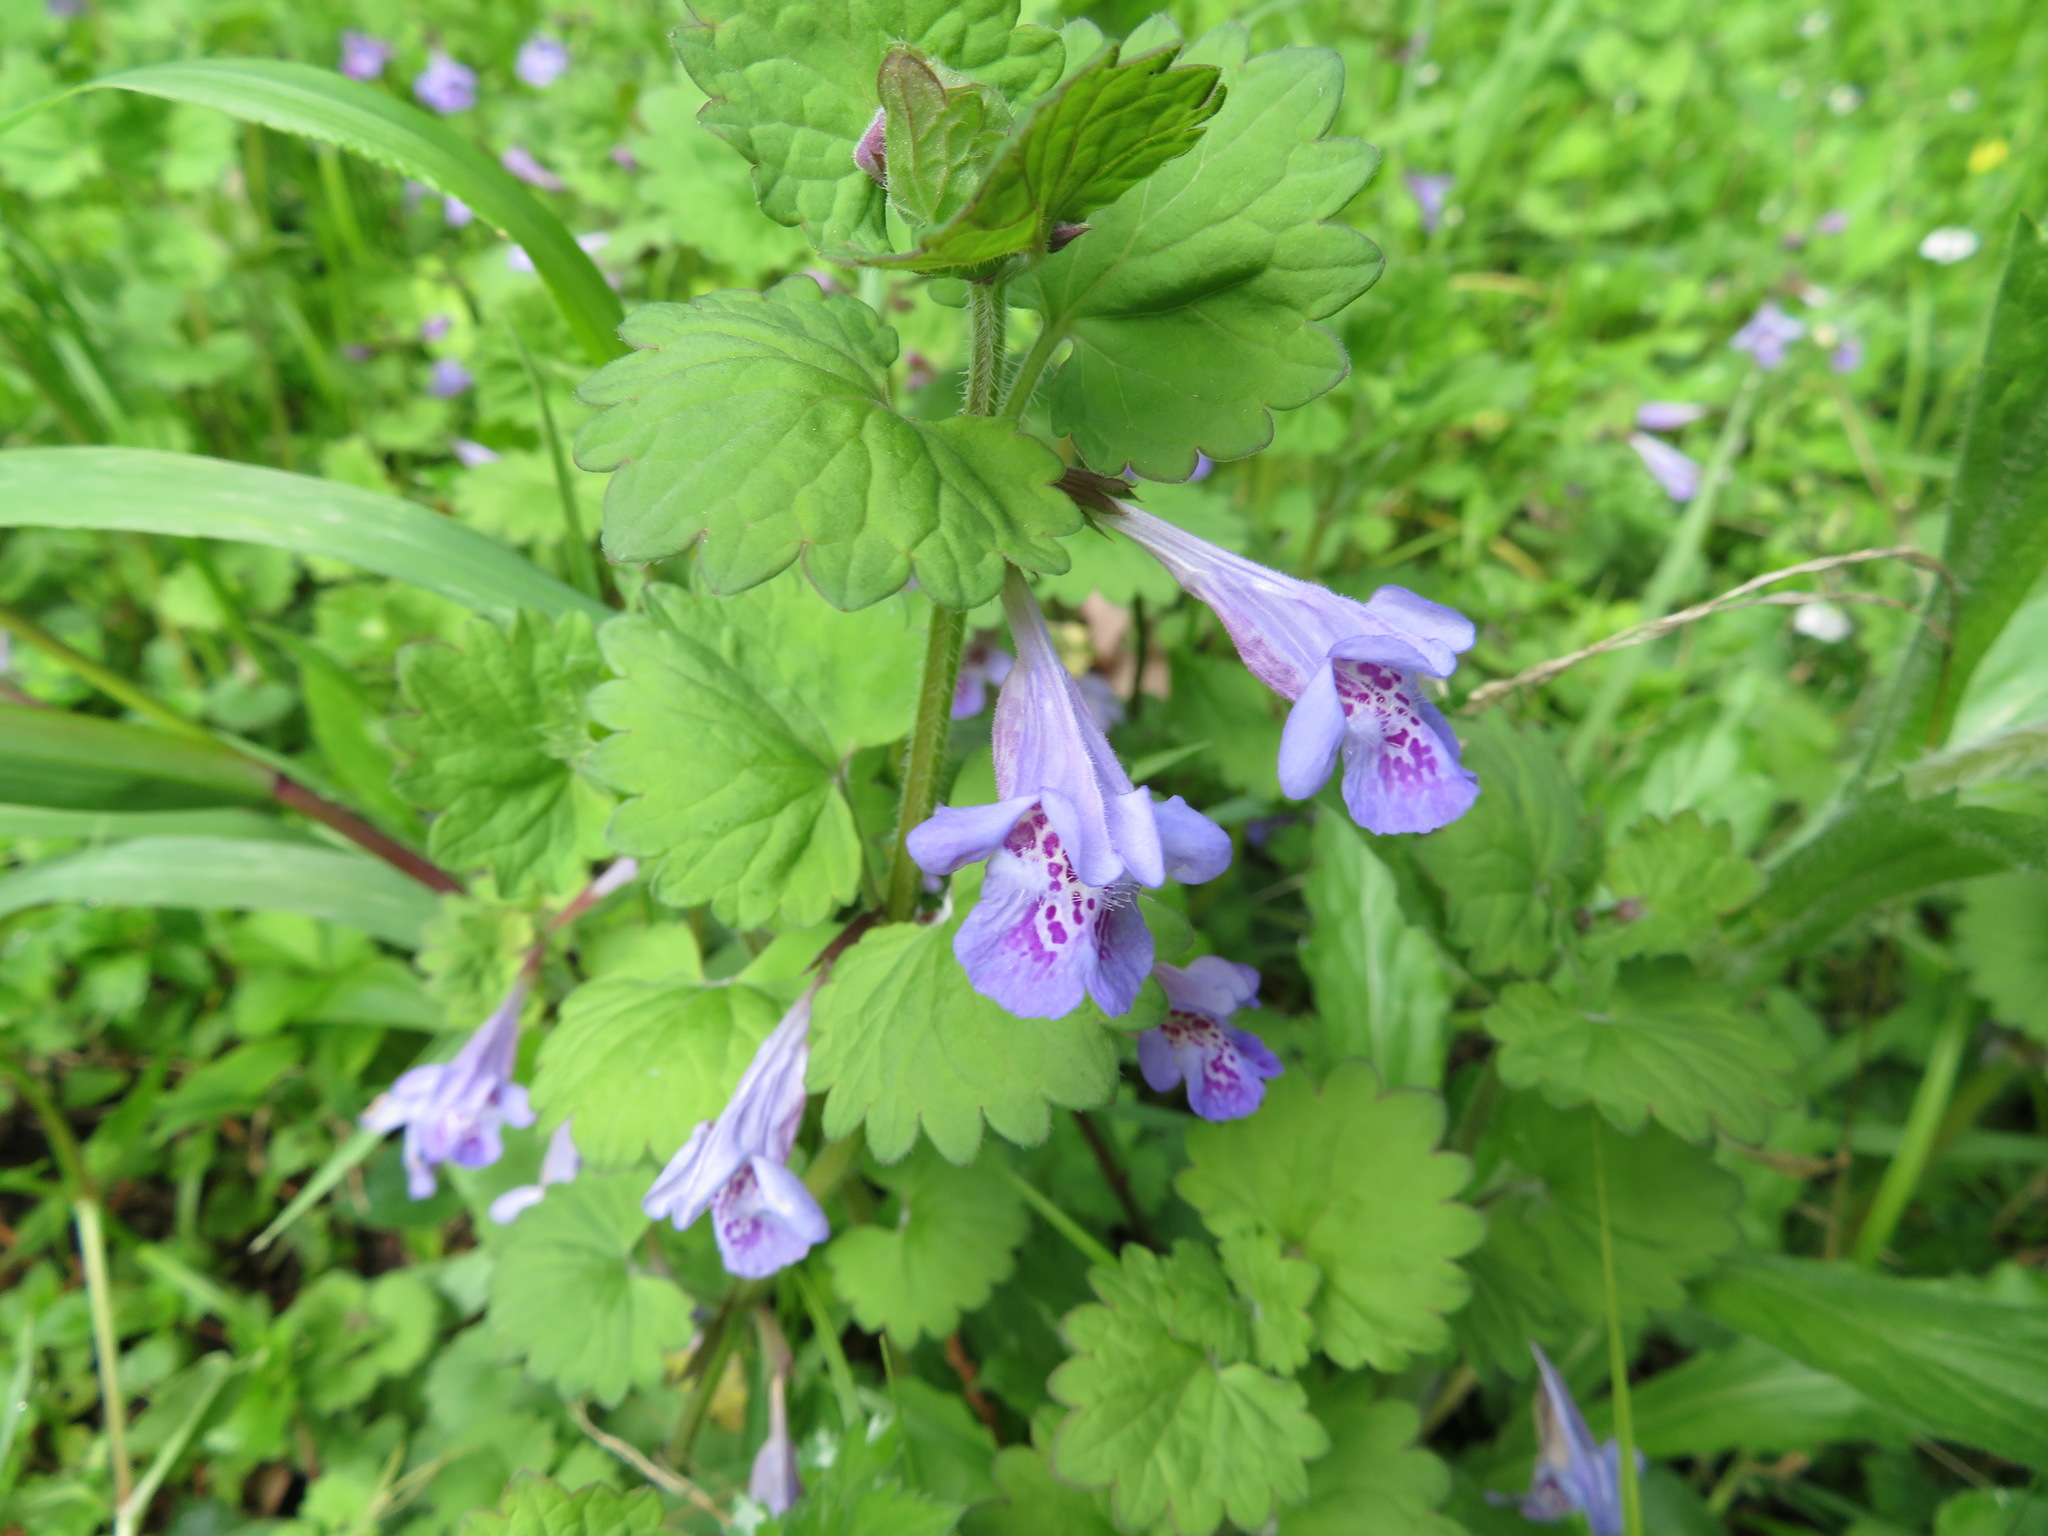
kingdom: Plantae
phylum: Tracheophyta
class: Magnoliopsida
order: Lamiales
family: Lamiaceae
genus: Glechoma
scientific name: Glechoma grandis
